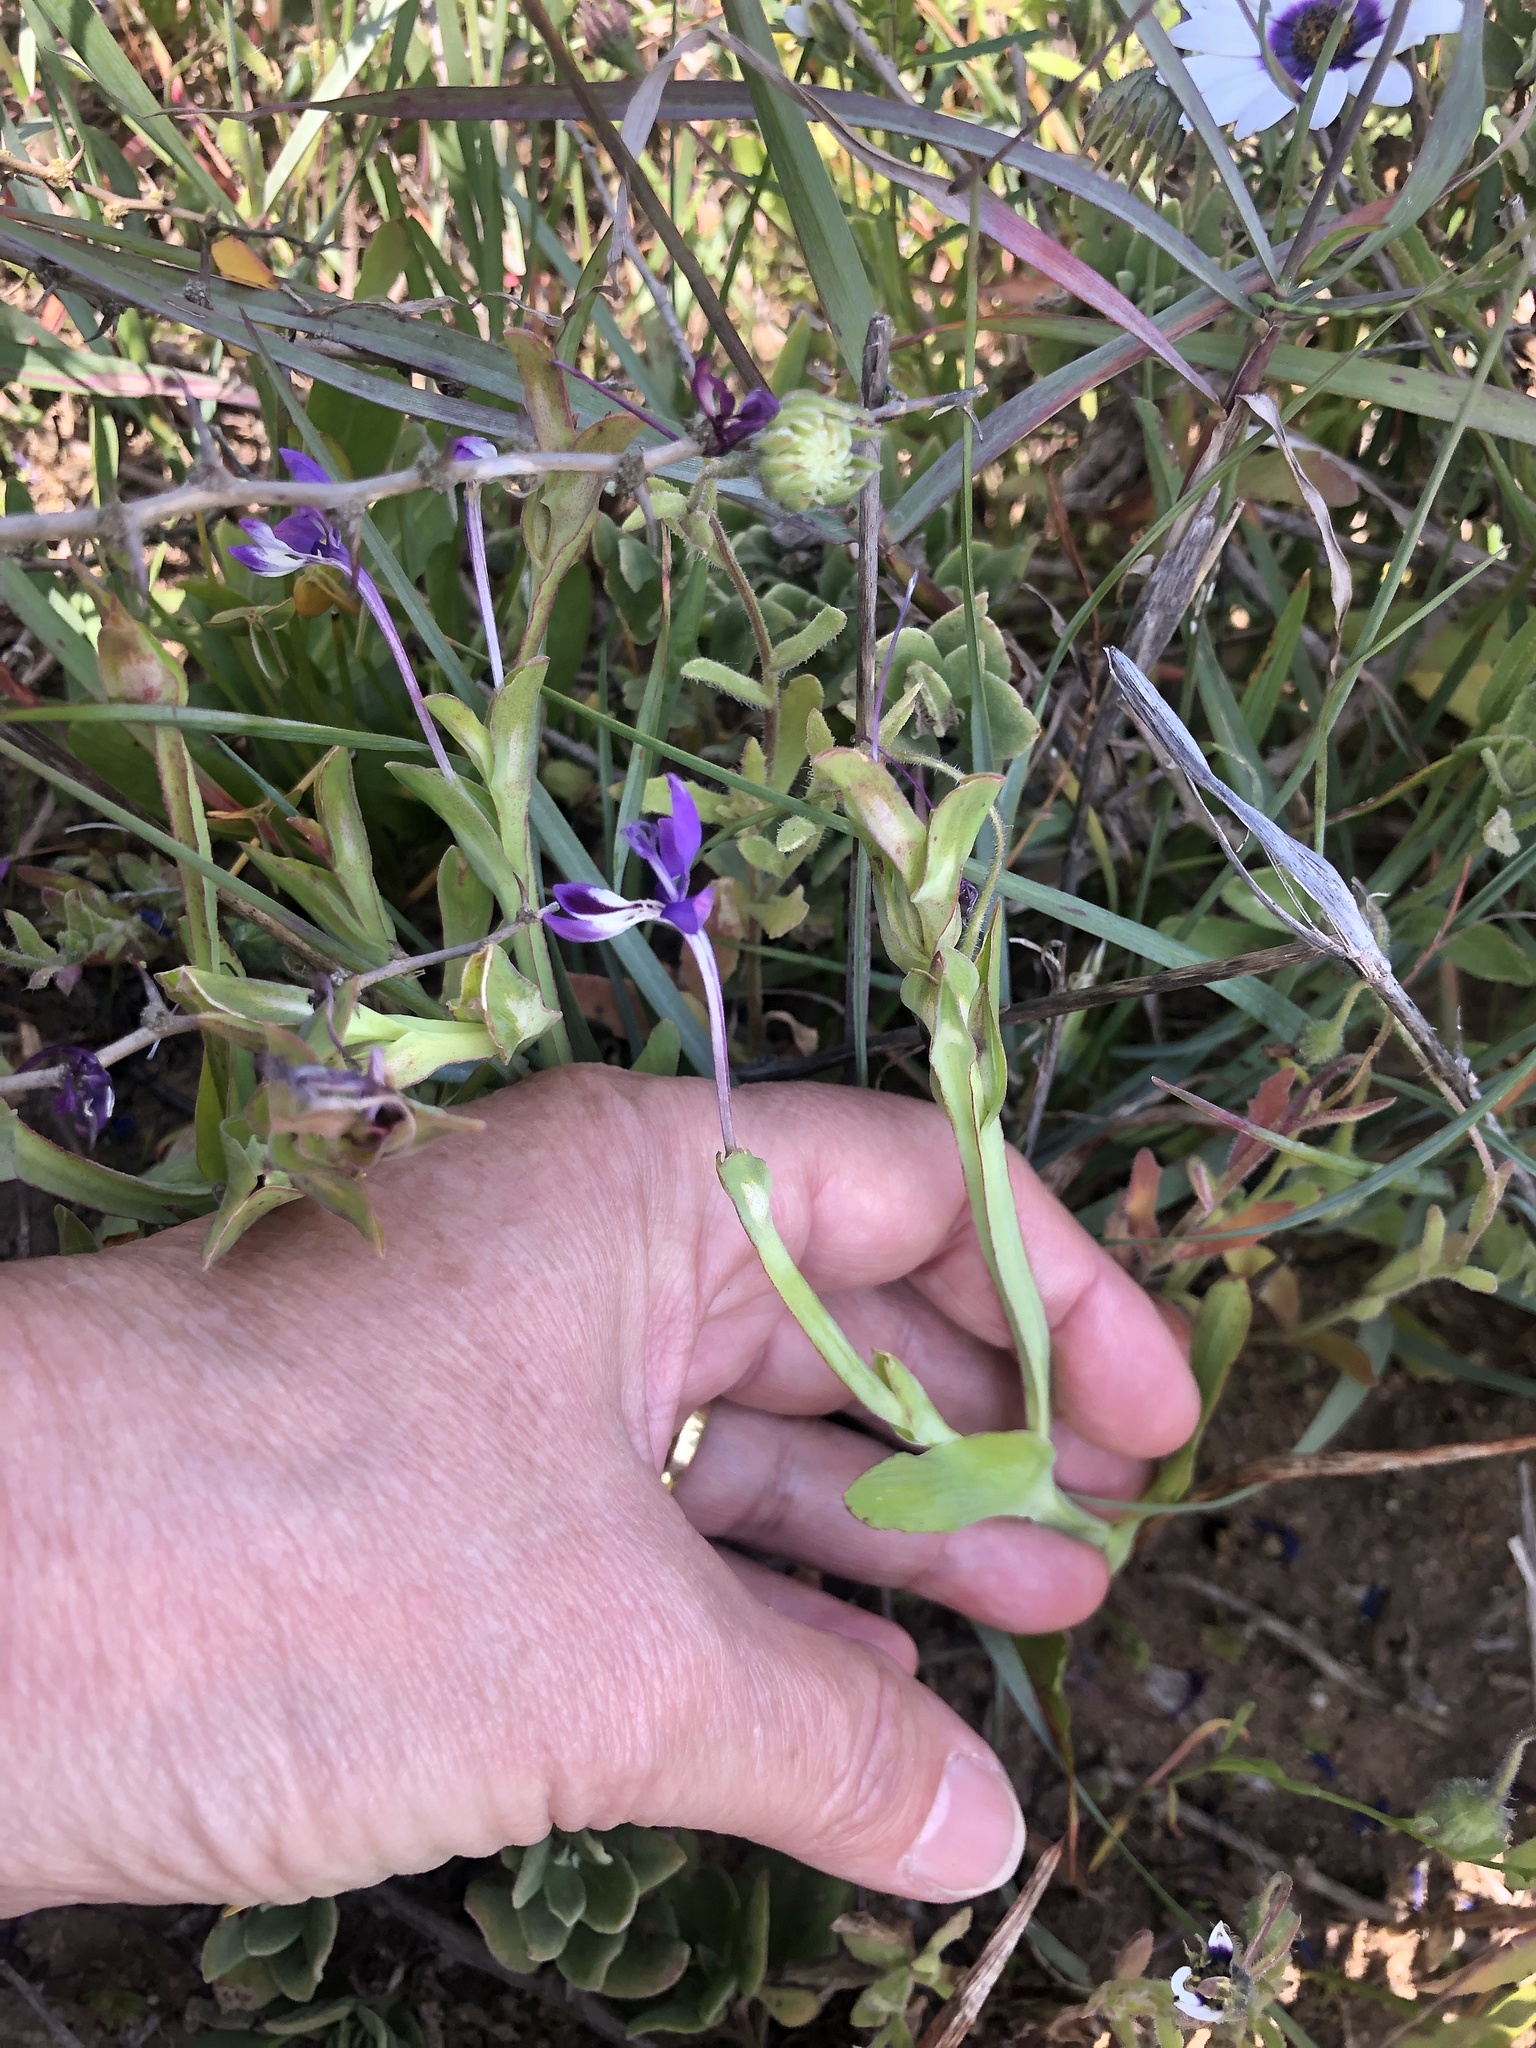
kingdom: Plantae
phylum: Tracheophyta
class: Liliopsida
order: Asparagales
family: Iridaceae
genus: Lapeirousia
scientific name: Lapeirousia jacquinii
